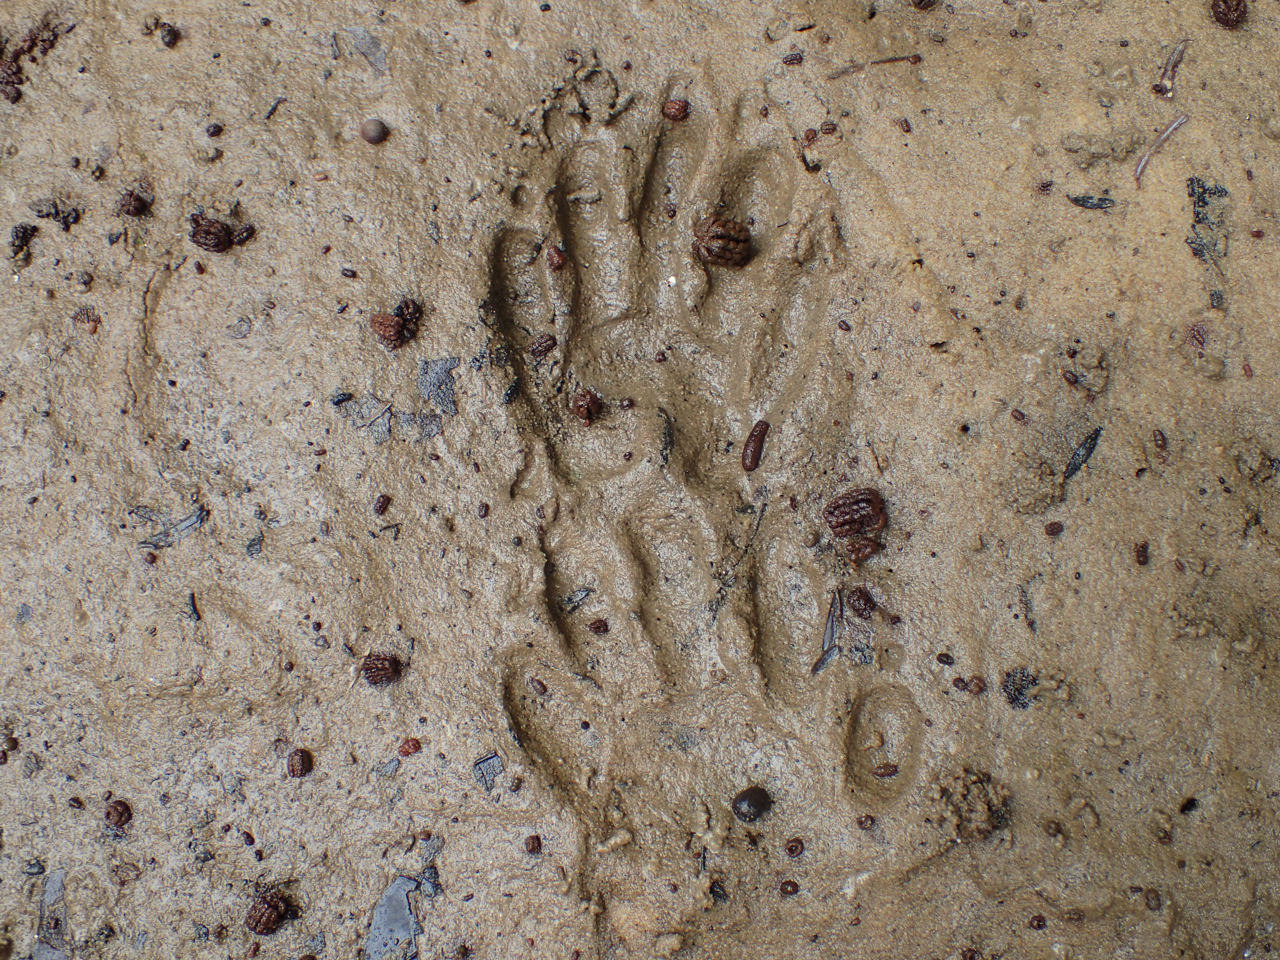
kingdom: Animalia
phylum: Chordata
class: Mammalia
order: Carnivora
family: Procyonidae
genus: Procyon
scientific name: Procyon lotor
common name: Raccoon
